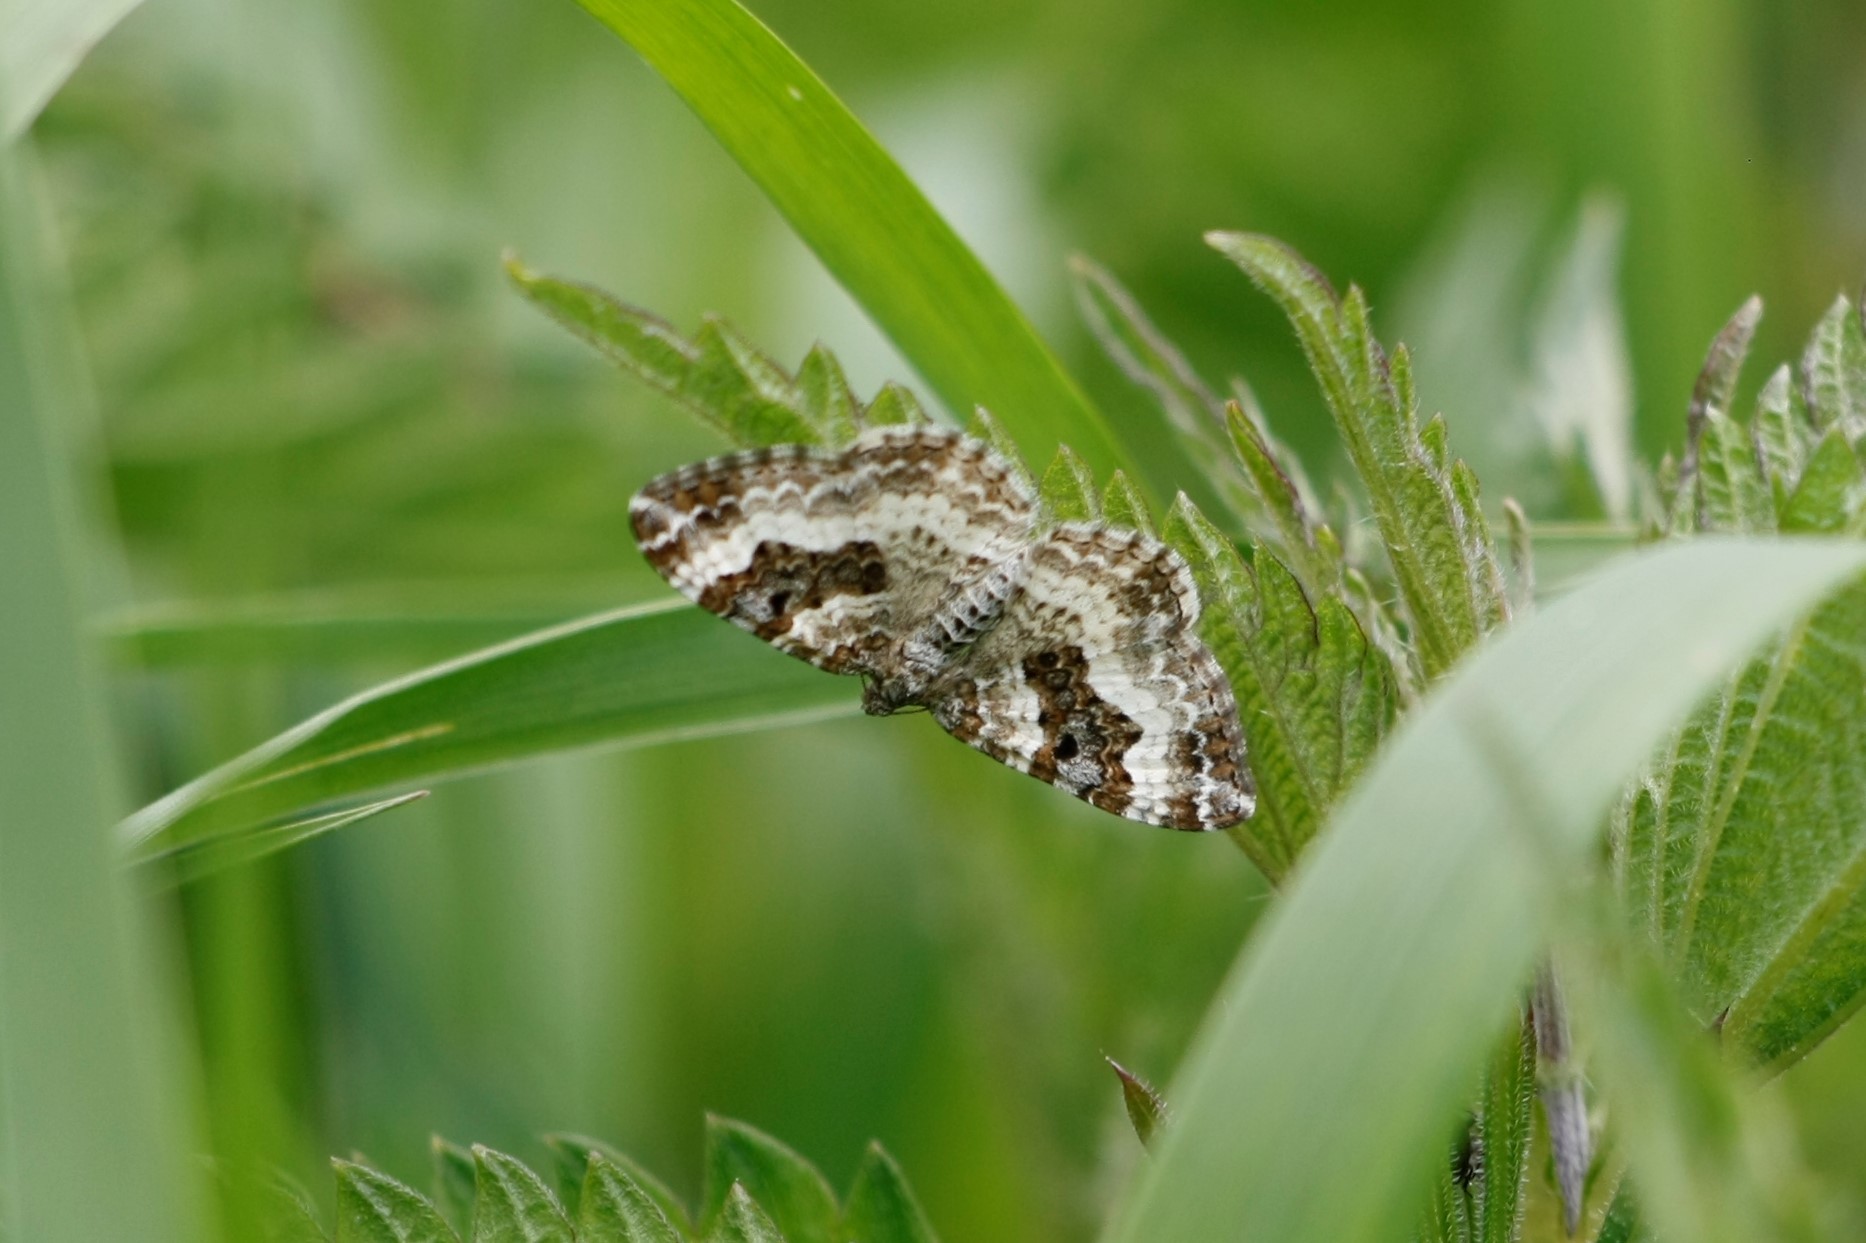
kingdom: Animalia
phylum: Arthropoda
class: Insecta
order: Lepidoptera
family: Geometridae
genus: Epirrhoe
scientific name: Epirrhoe alternata
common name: Common carpet
